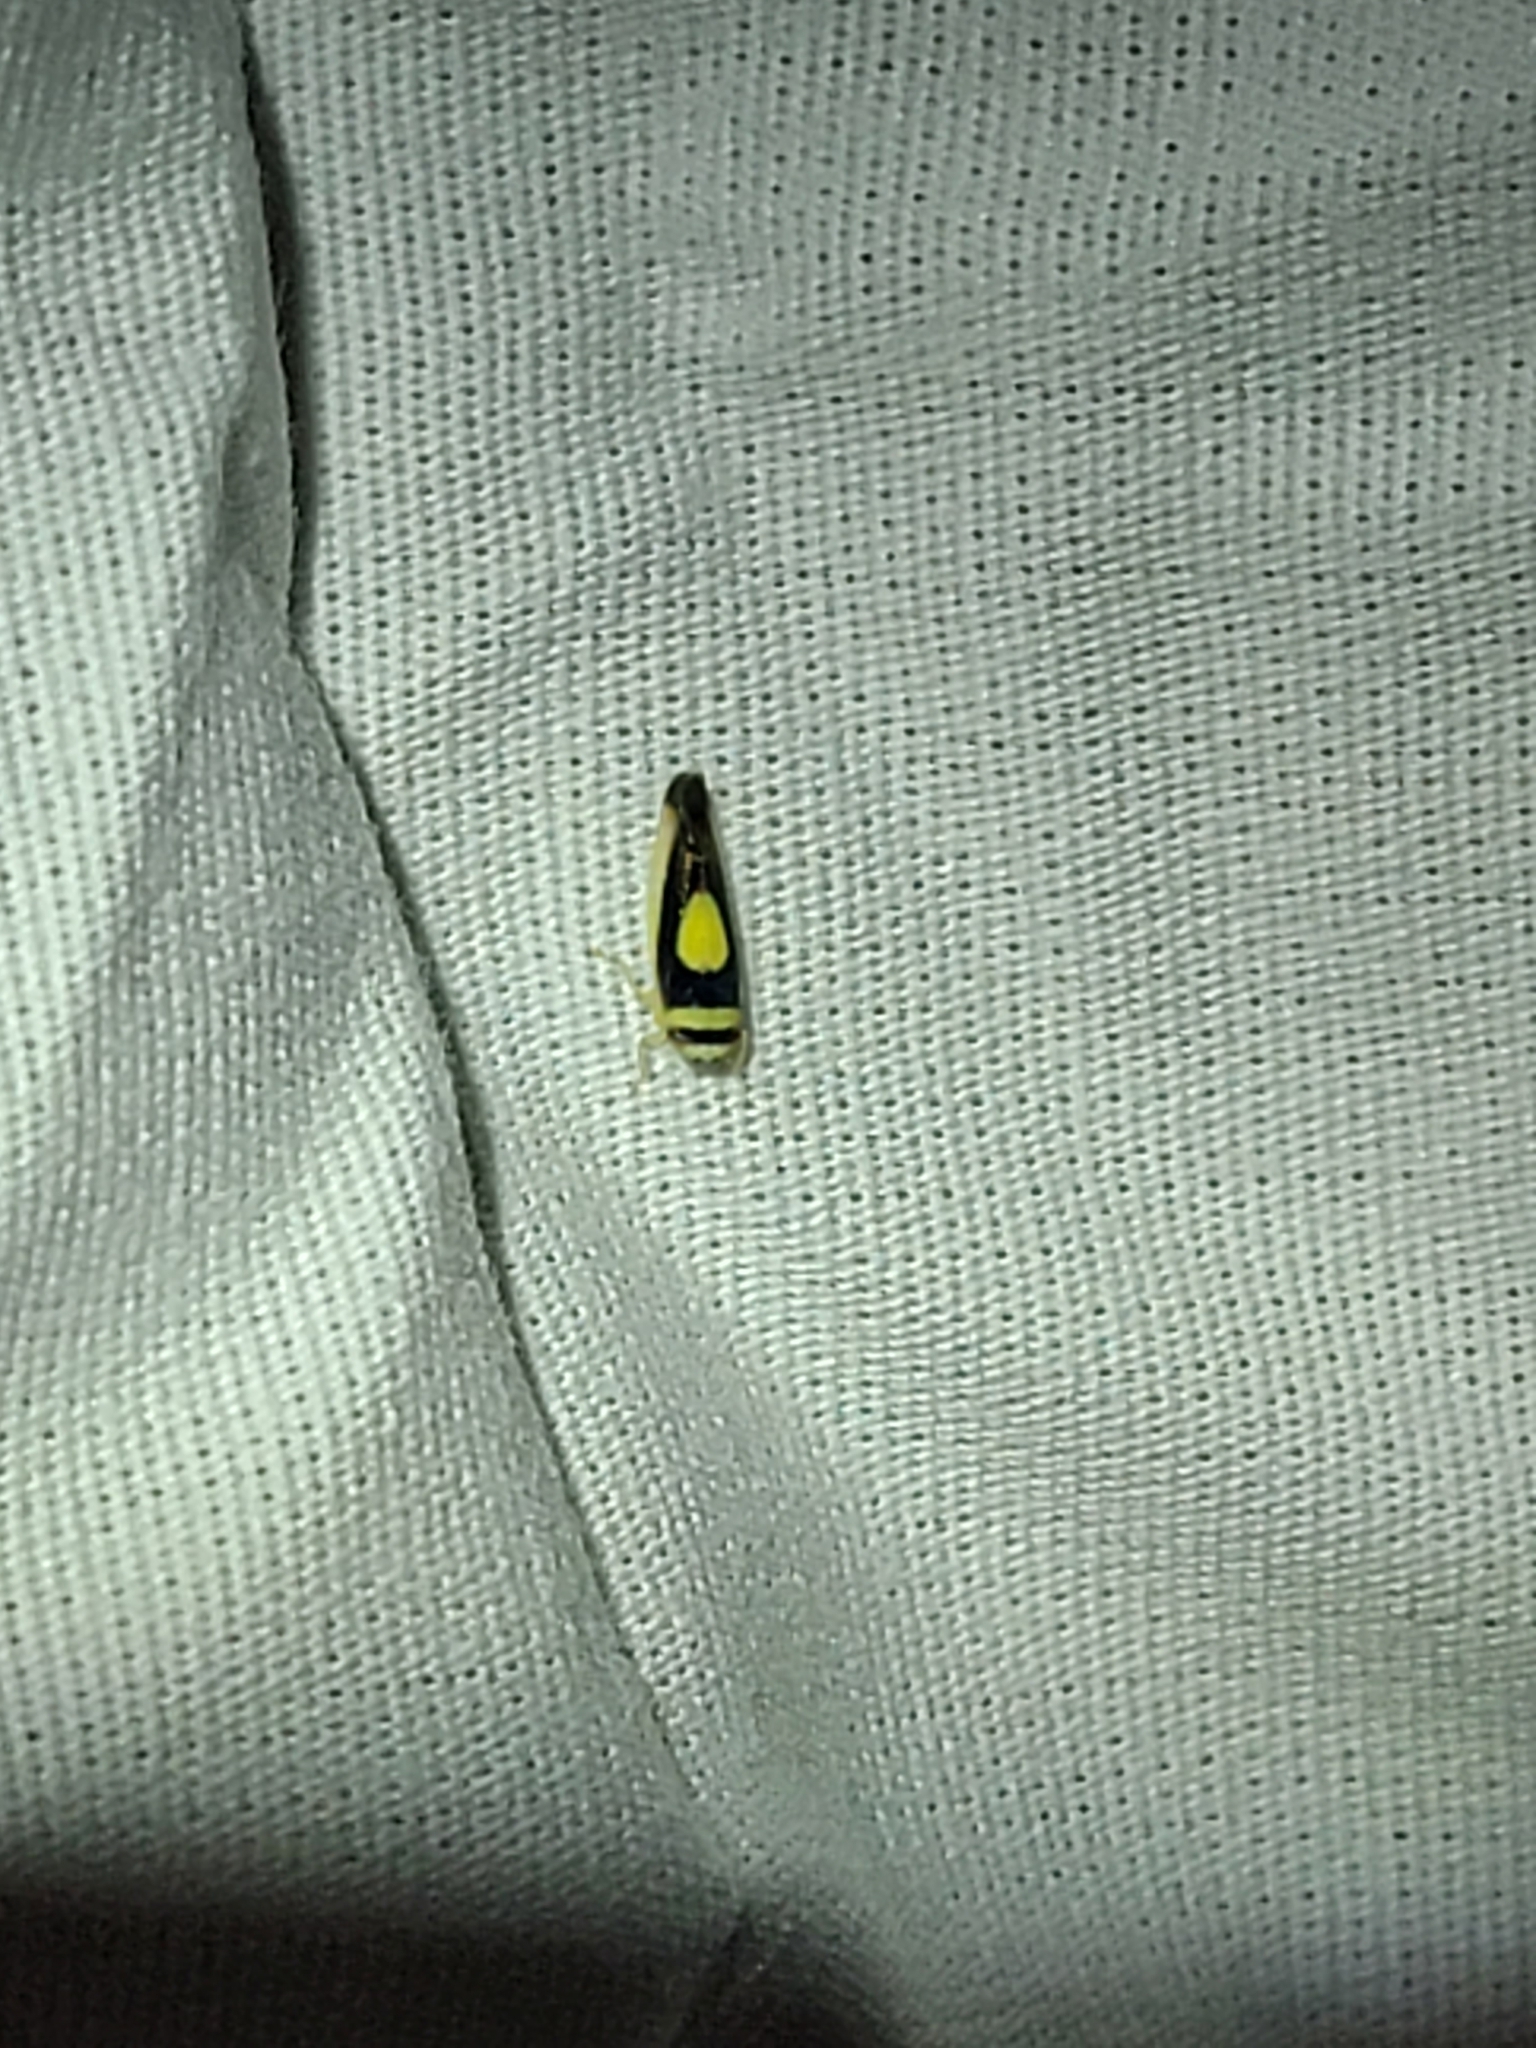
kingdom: Animalia
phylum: Arthropoda
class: Insecta
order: Hemiptera
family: Cicadellidae
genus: Colladonus
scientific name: Colladonus clitellarius
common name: The saddleback leafhopper
